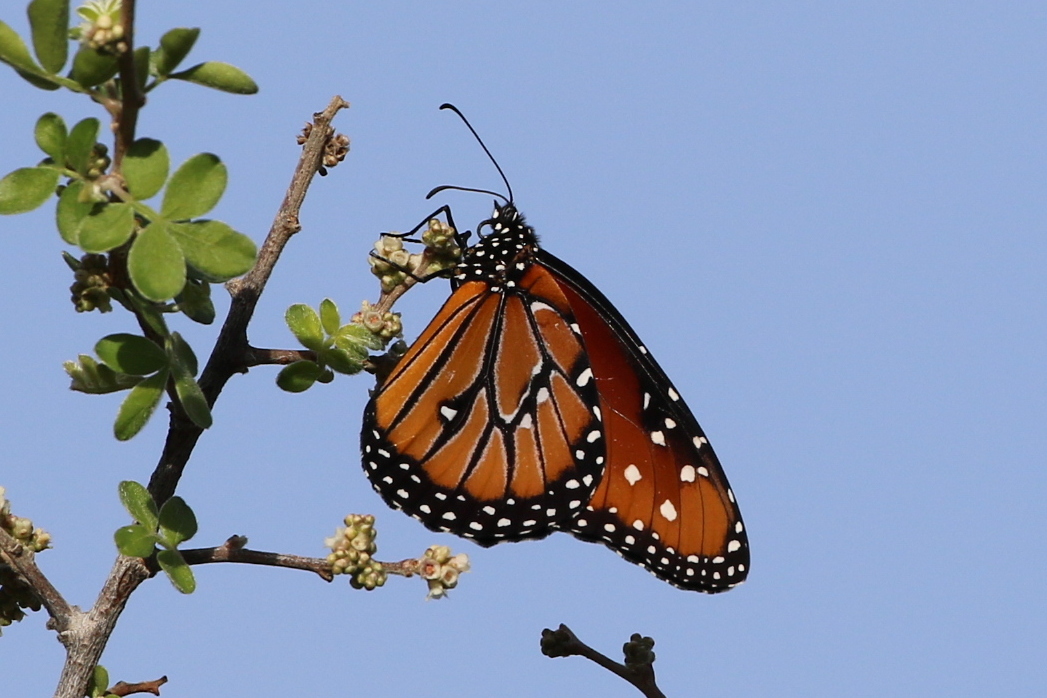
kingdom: Animalia
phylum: Arthropoda
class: Insecta
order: Lepidoptera
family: Nymphalidae
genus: Danaus
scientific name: Danaus gilippus
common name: Queen
